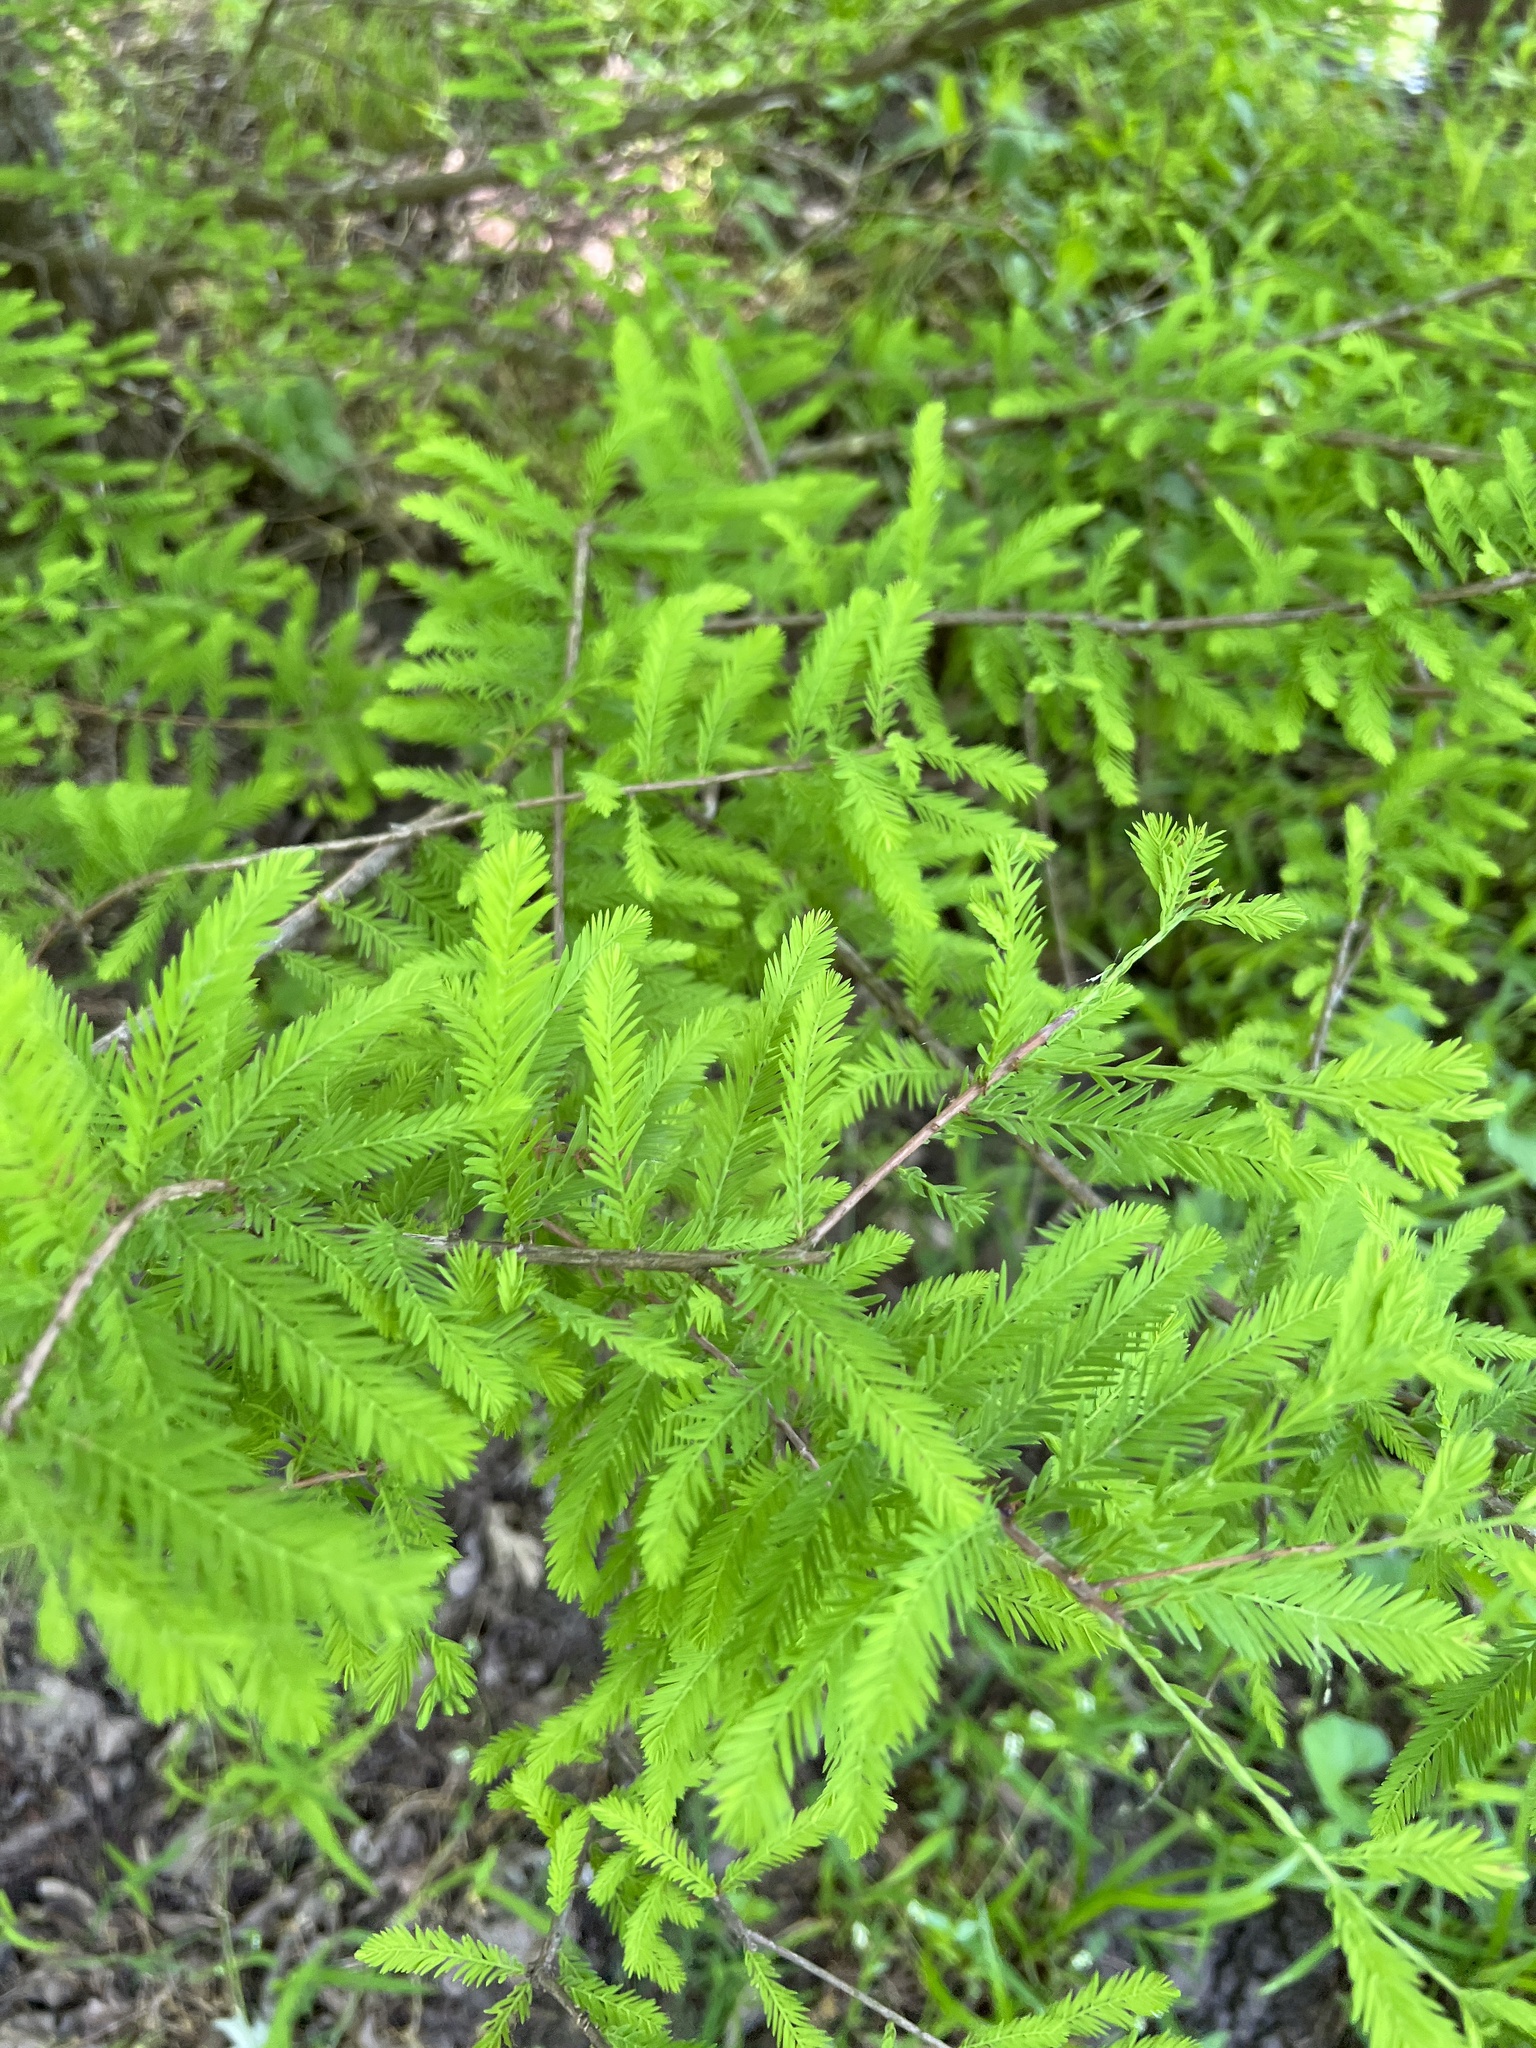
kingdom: Plantae
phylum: Tracheophyta
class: Pinopsida
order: Pinales
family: Cupressaceae
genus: Taxodium
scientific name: Taxodium distichum
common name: Bald cypress
